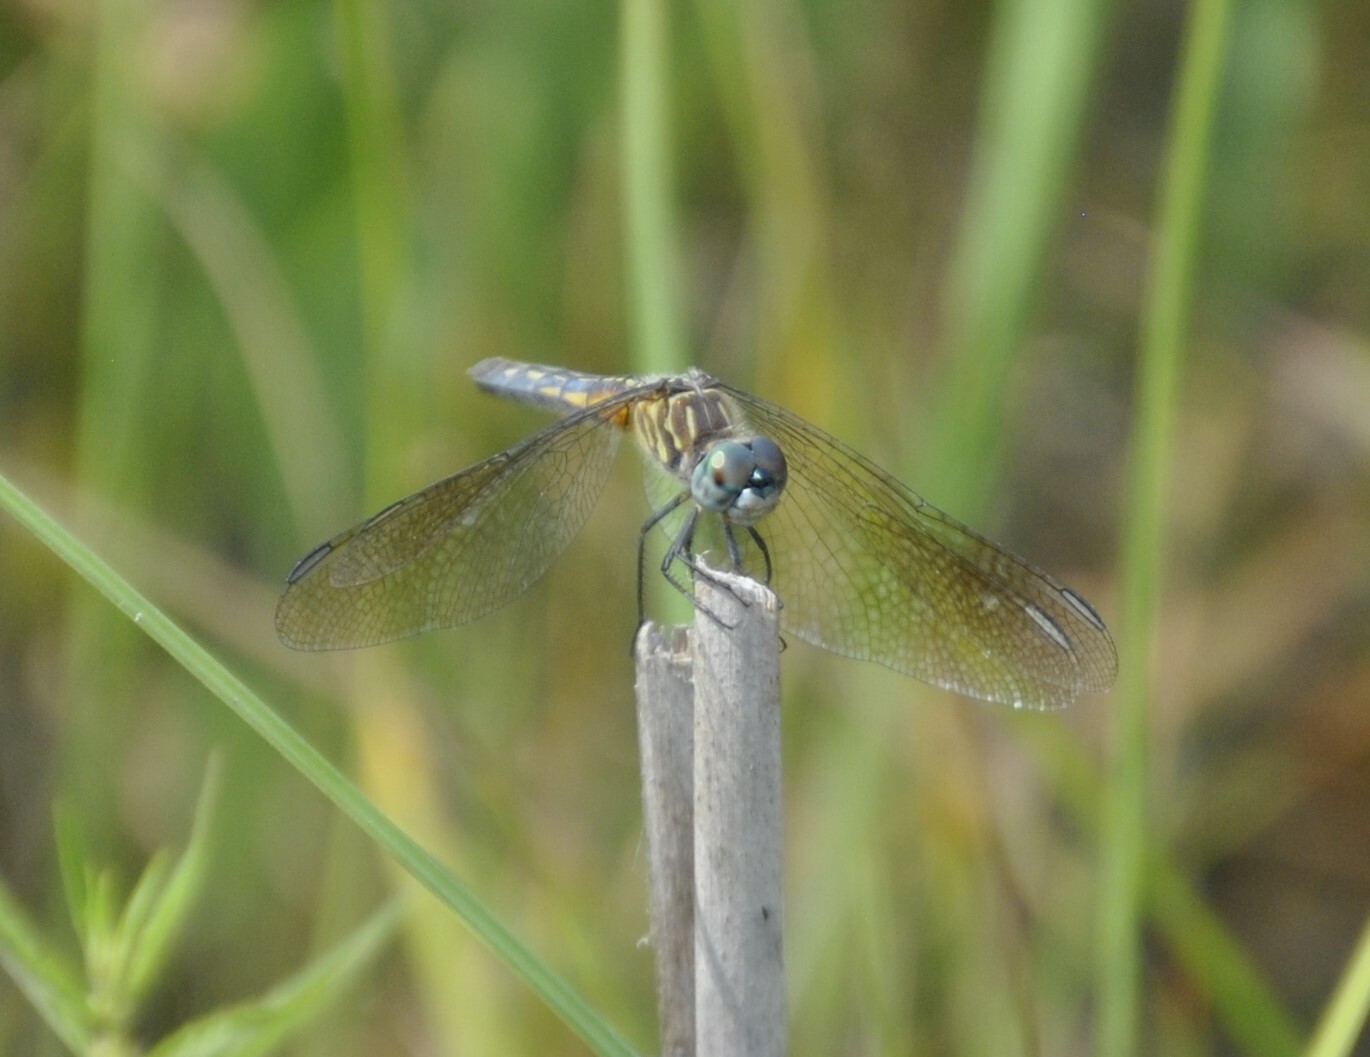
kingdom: Animalia
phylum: Arthropoda
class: Insecta
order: Odonata
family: Libellulidae
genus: Pachydiplax
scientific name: Pachydiplax longipennis
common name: Blue dasher
